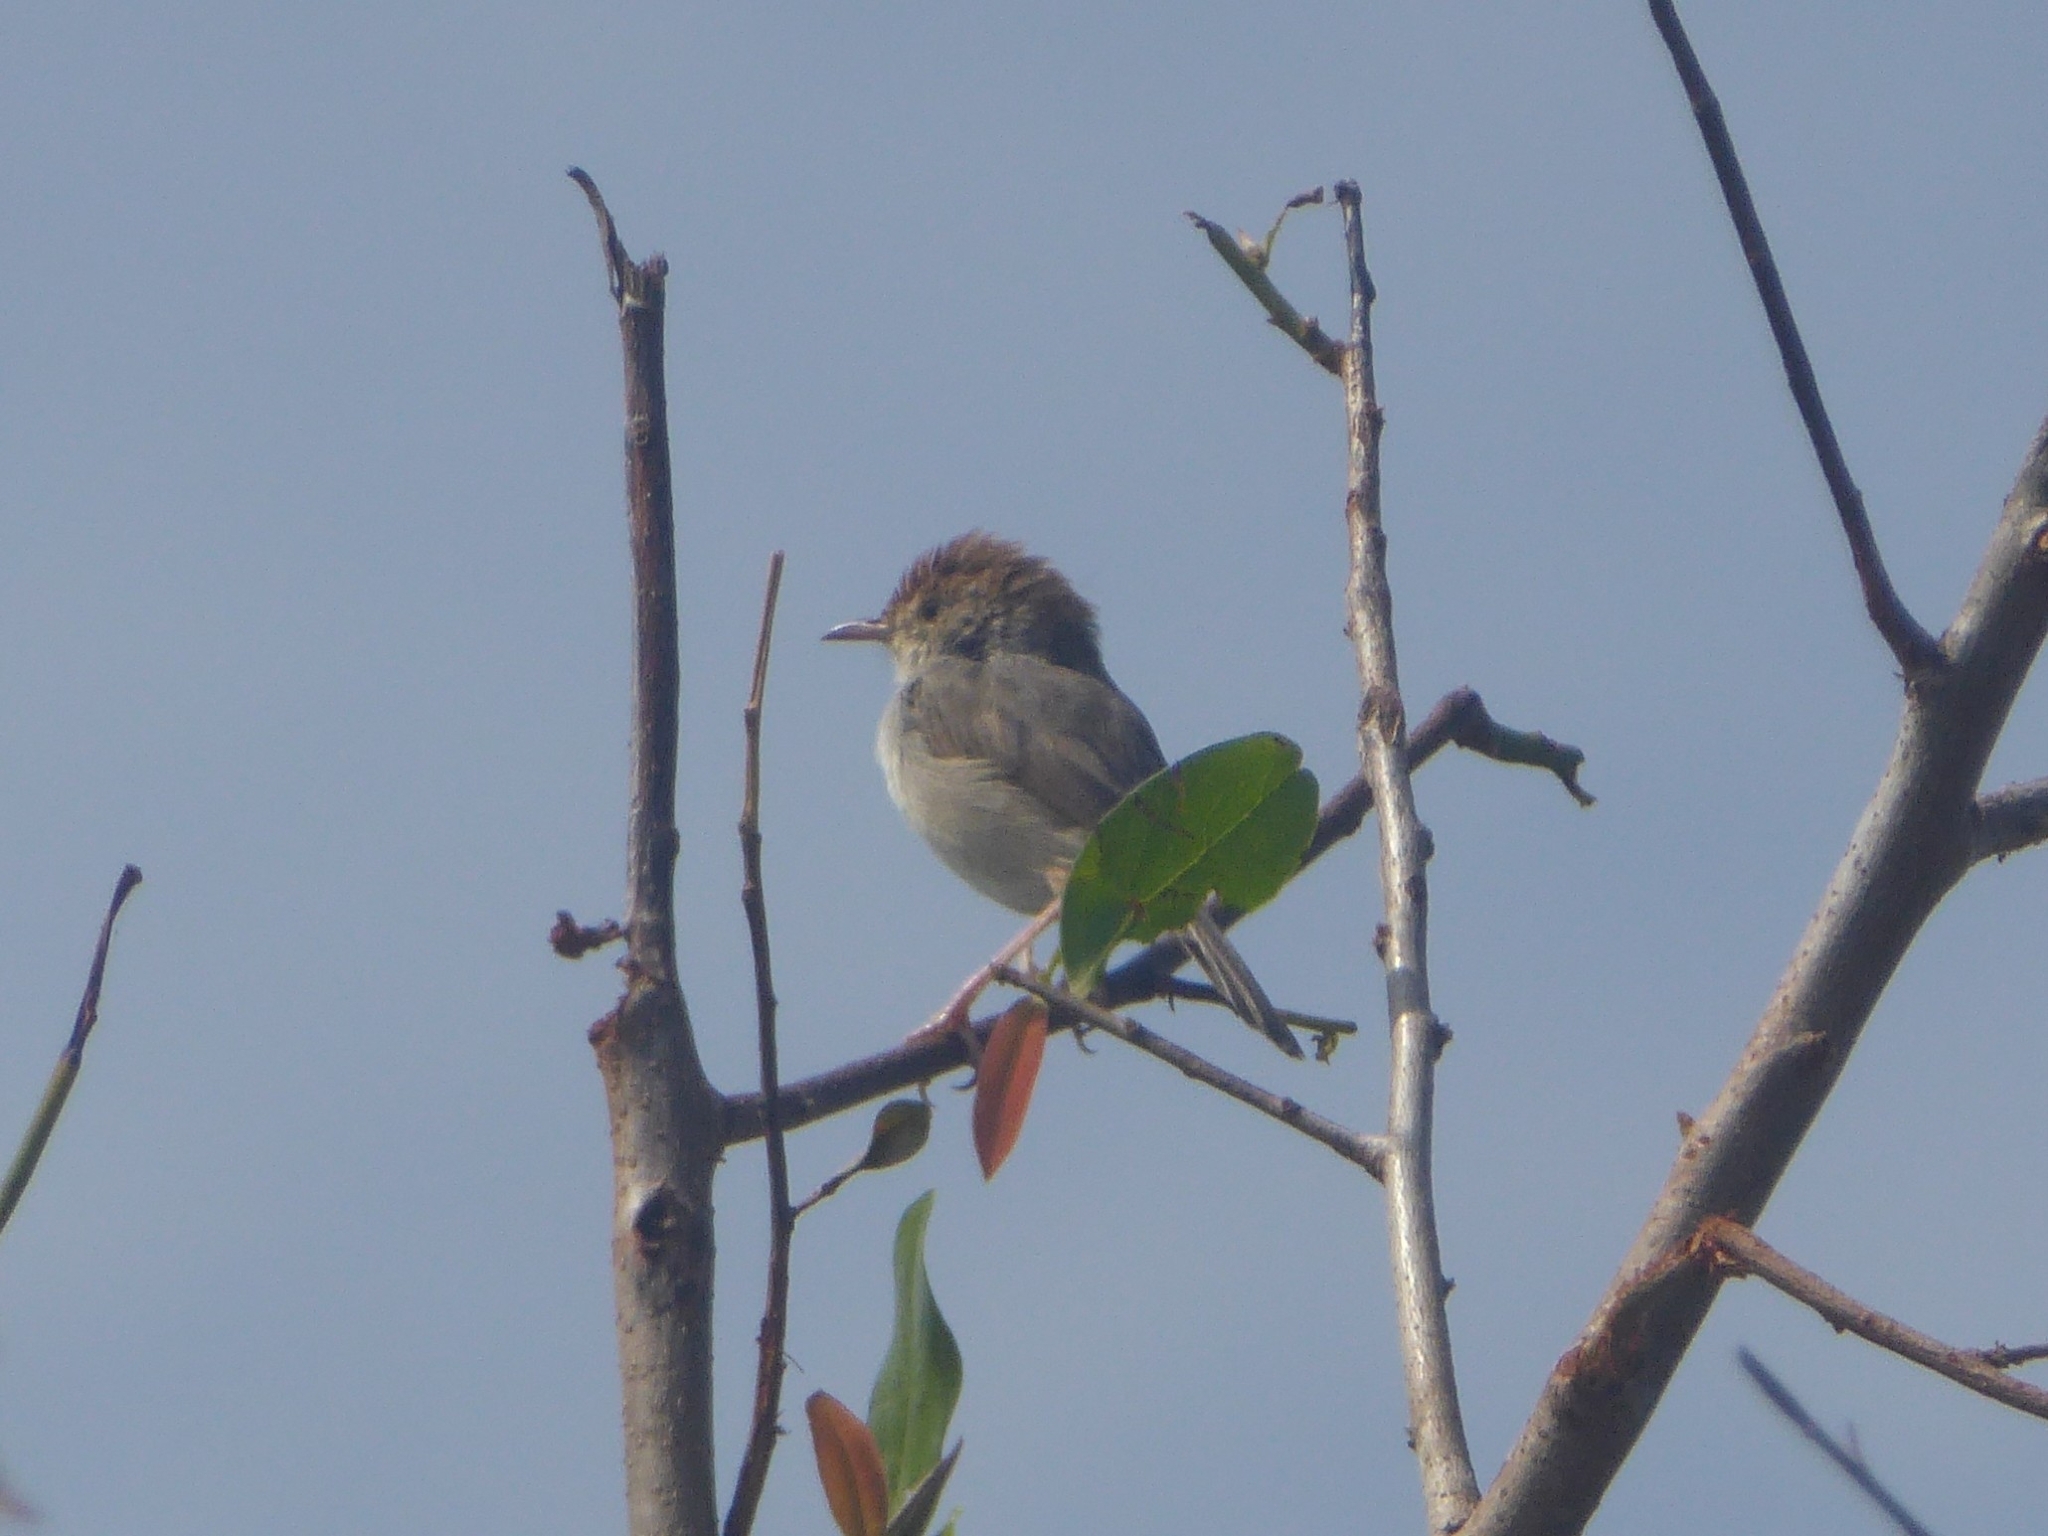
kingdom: Animalia
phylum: Chordata
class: Aves
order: Passeriformes
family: Cisticolidae
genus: Cisticola
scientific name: Cisticola fulvicapilla
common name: Neddicky
